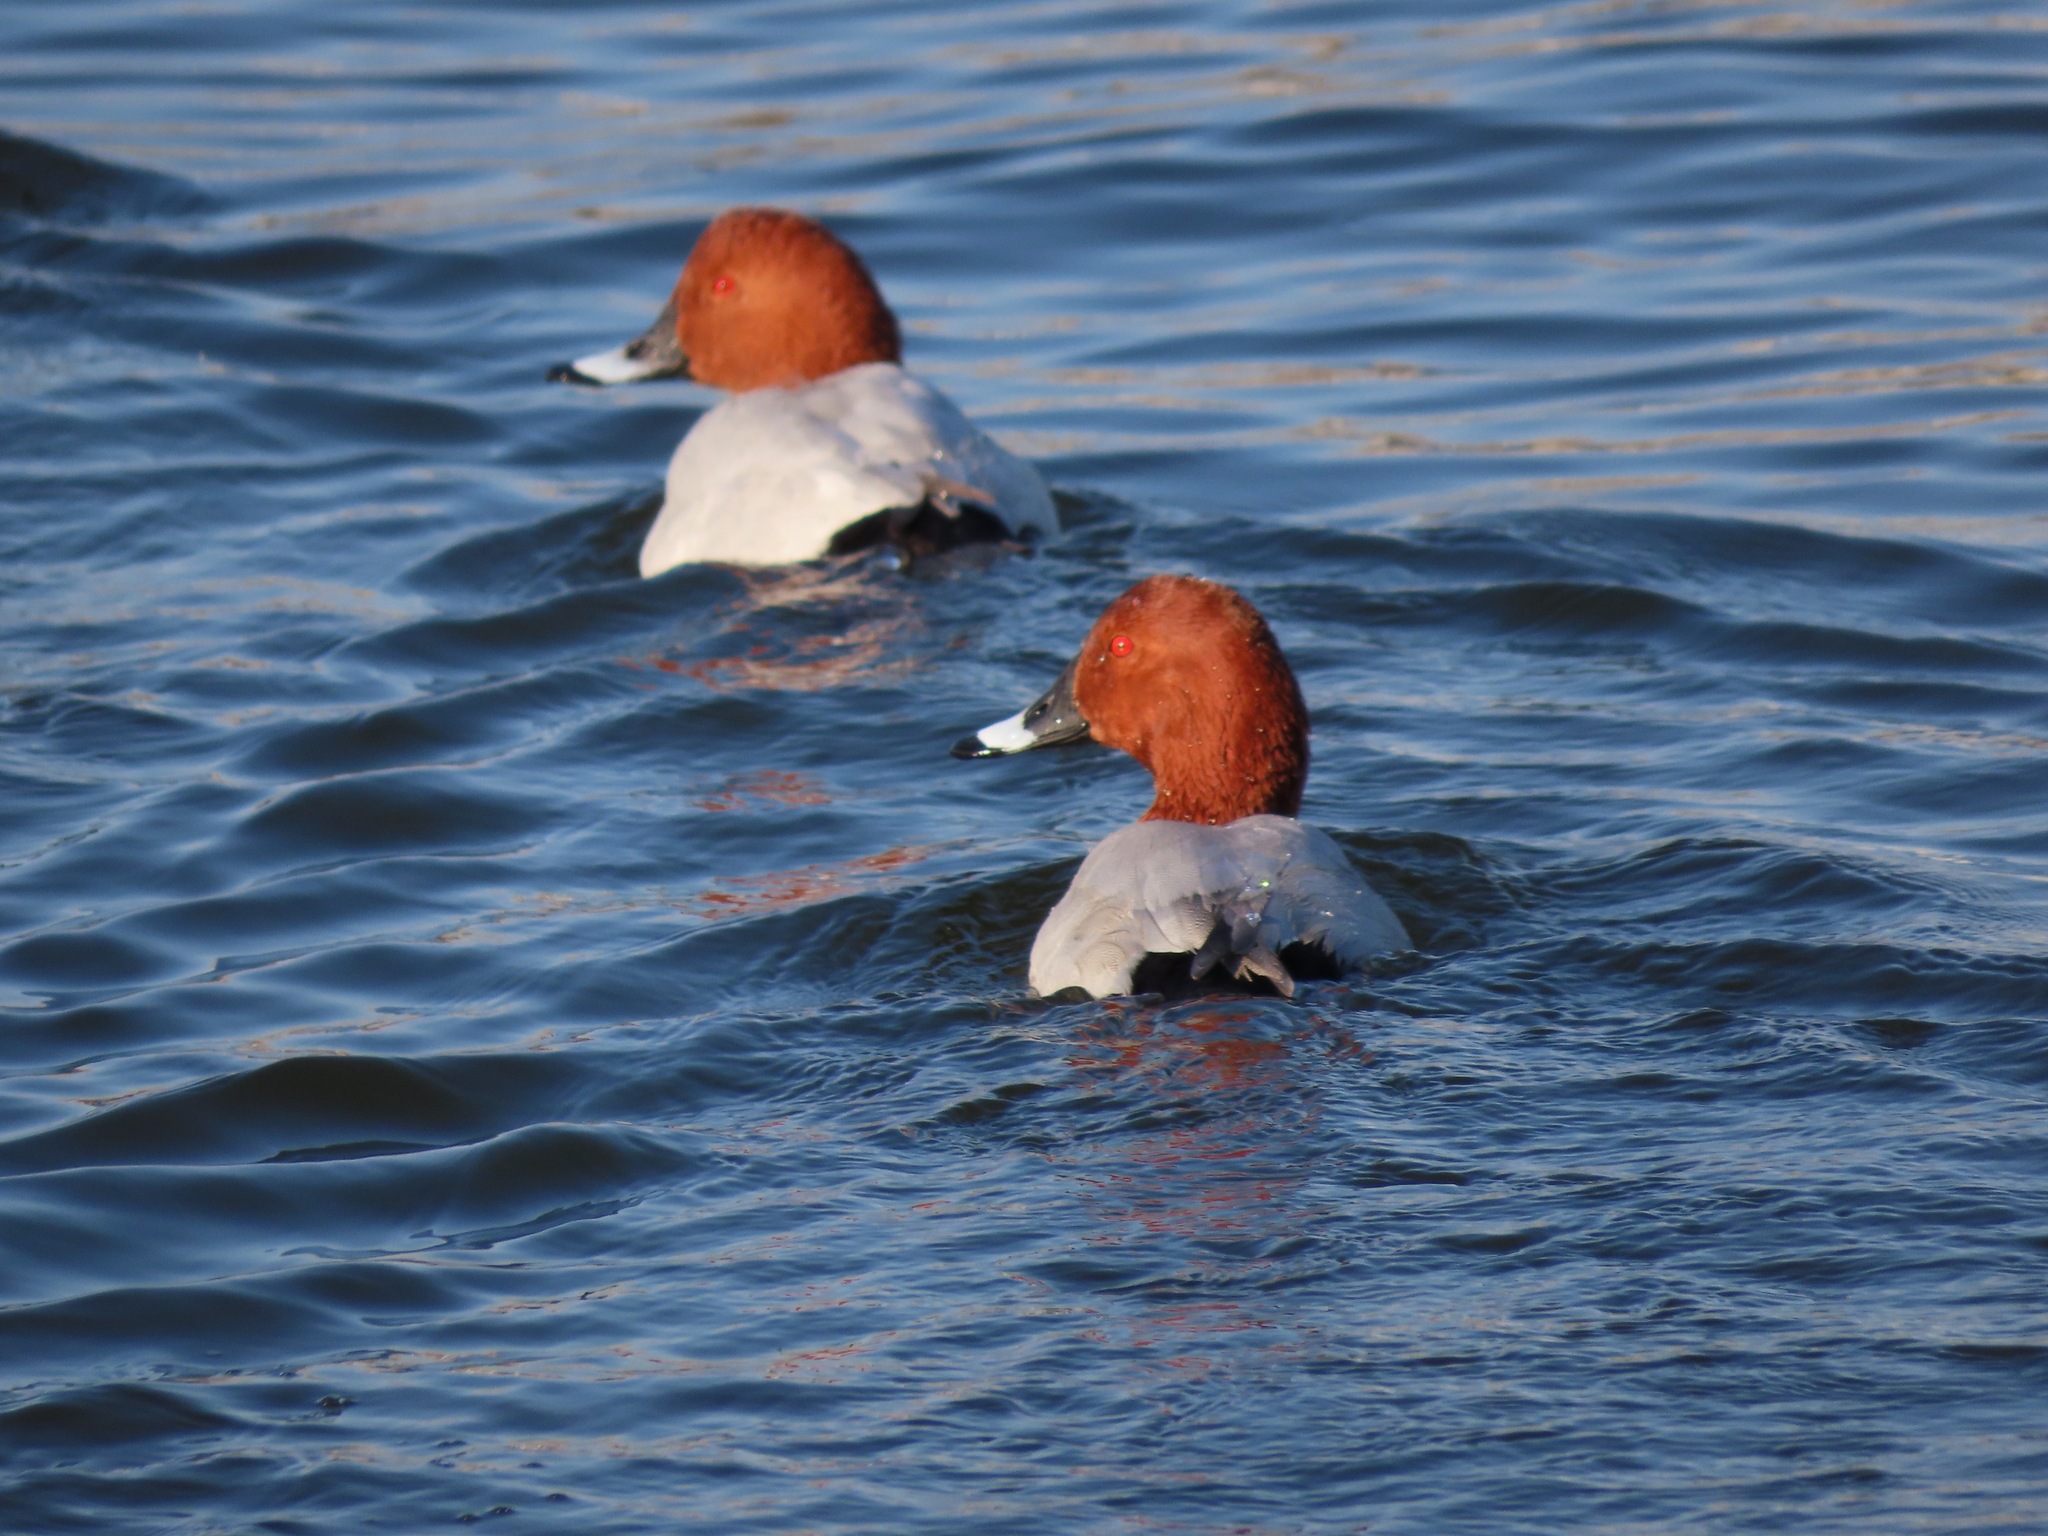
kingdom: Animalia
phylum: Chordata
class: Aves
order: Anseriformes
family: Anatidae
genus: Aythya
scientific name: Aythya ferina
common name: Common pochard
